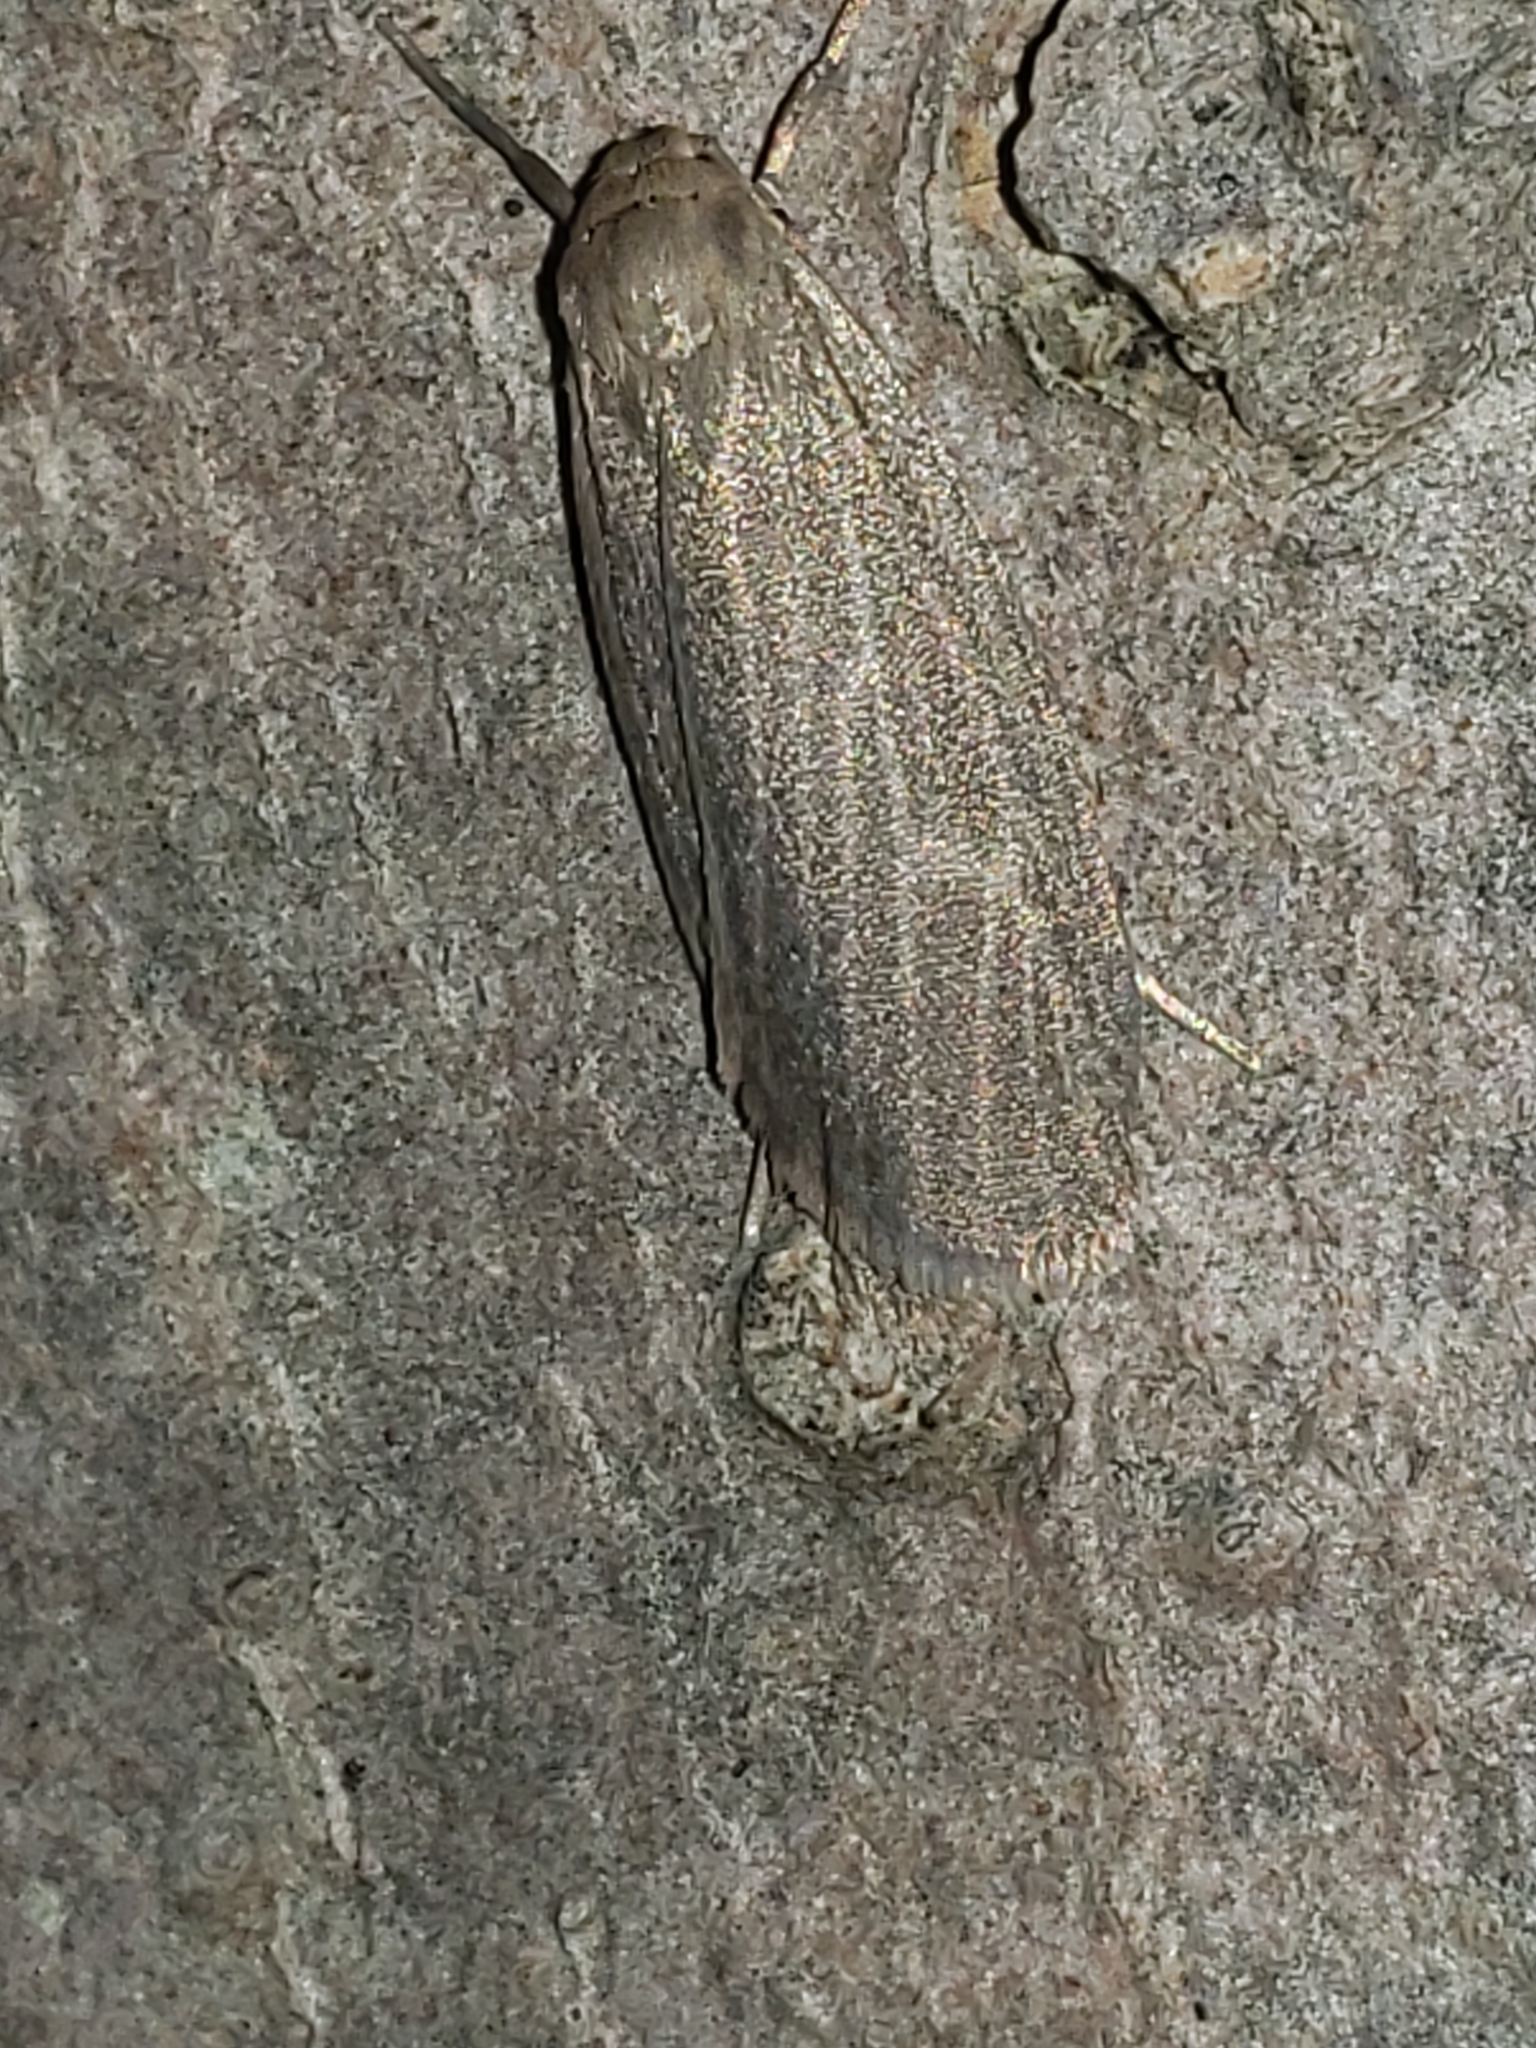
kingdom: Animalia
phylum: Arthropoda
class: Insecta
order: Lepidoptera
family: Erebidae
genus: Crambidia
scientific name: Crambidia pallida
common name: Pale lichen moth
